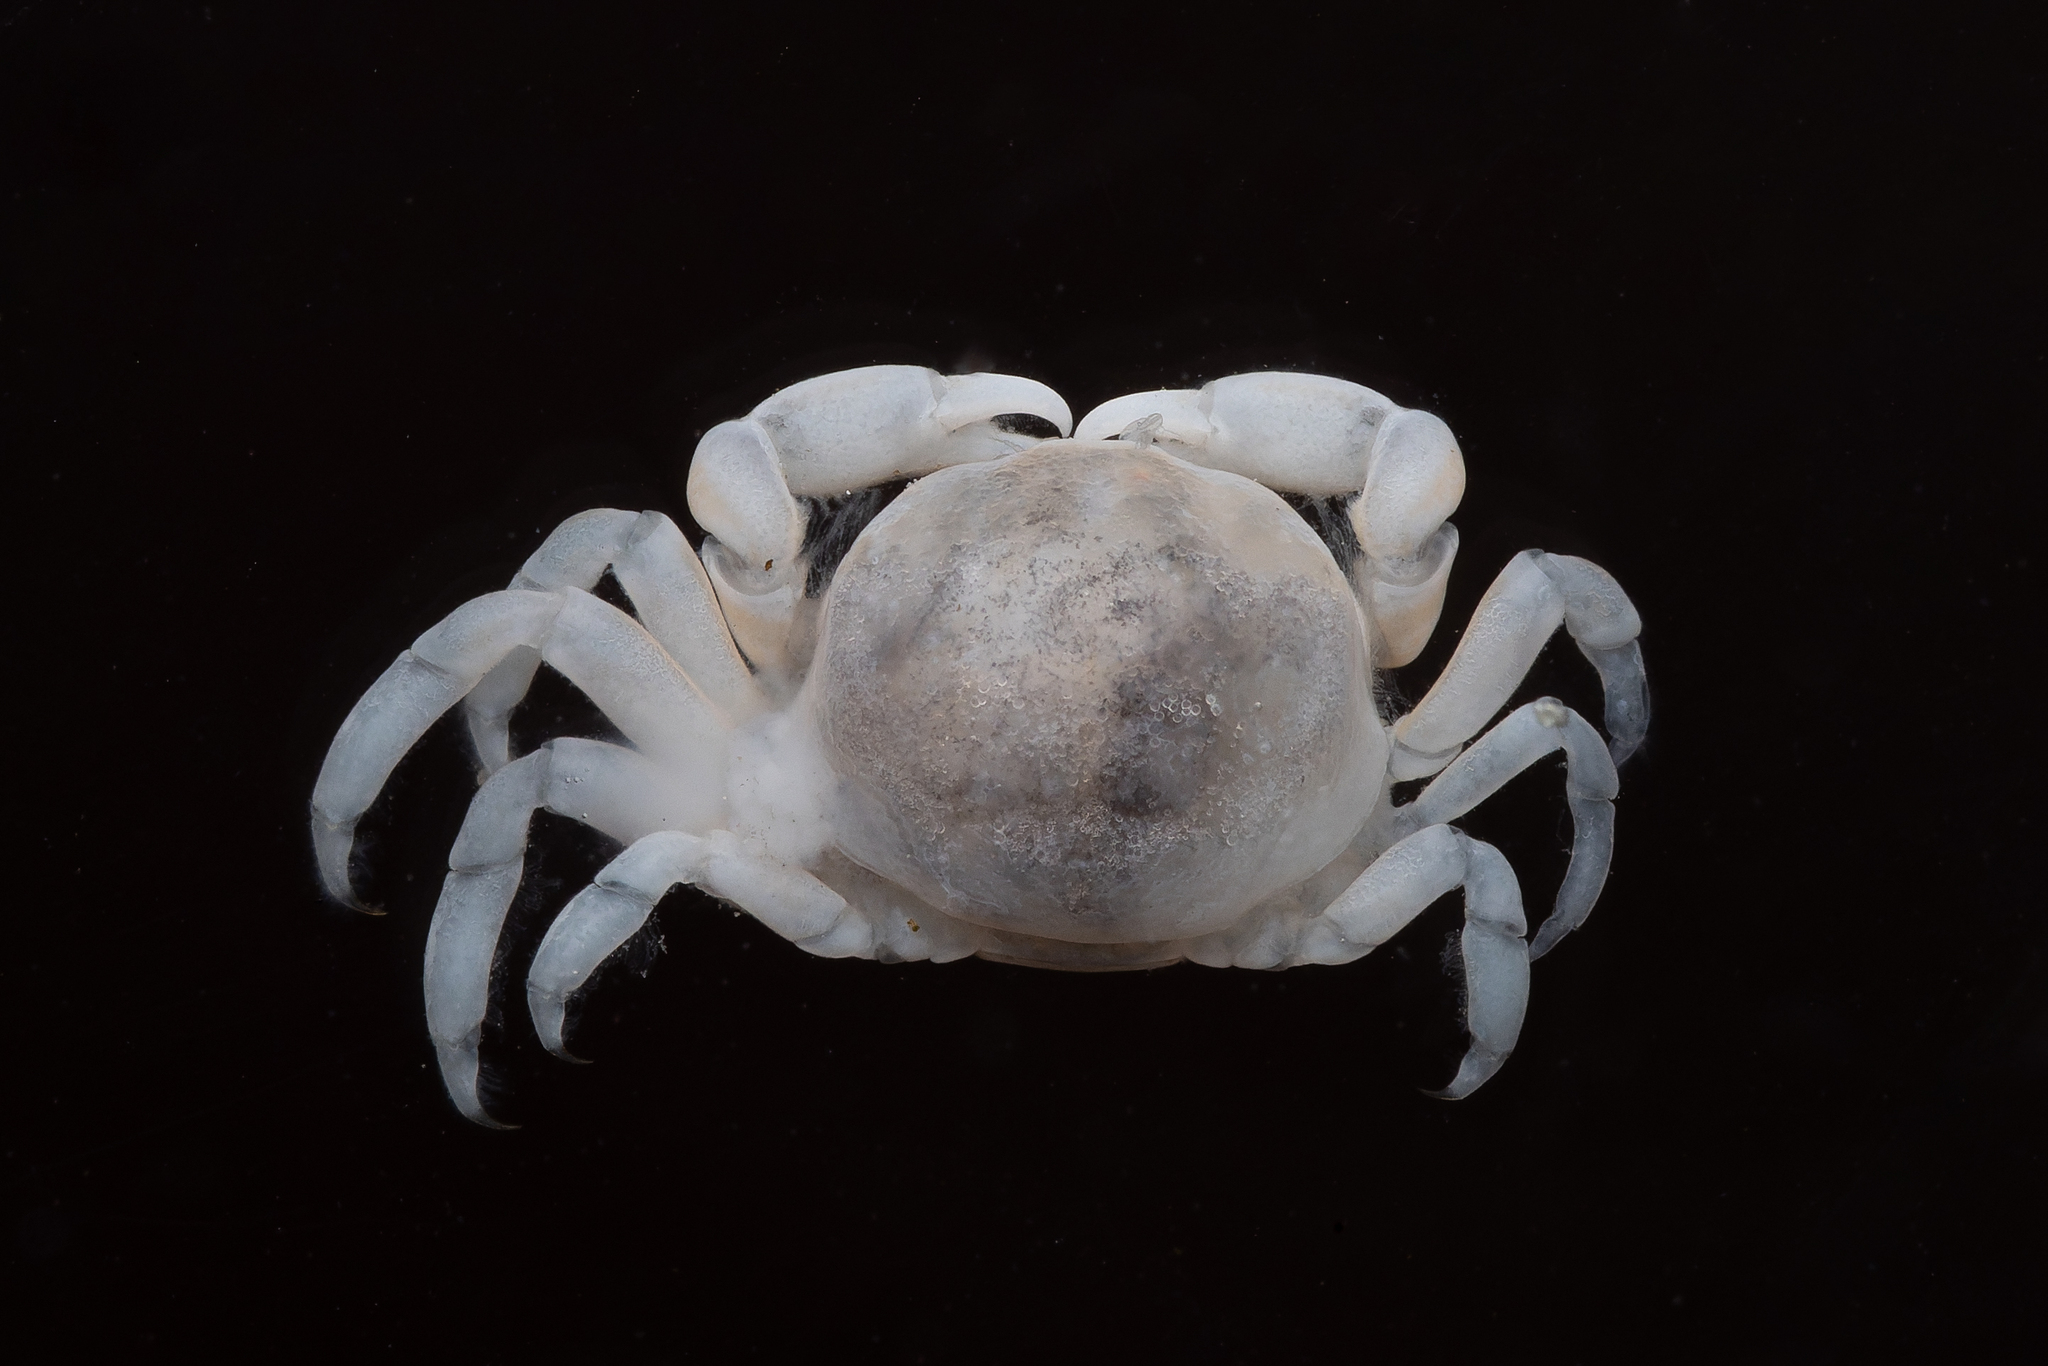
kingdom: Animalia
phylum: Arthropoda
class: Malacostraca
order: Decapoda
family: Pinnotheridae
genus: Nepinnotheres
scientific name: Nepinnotheres atrinicola
